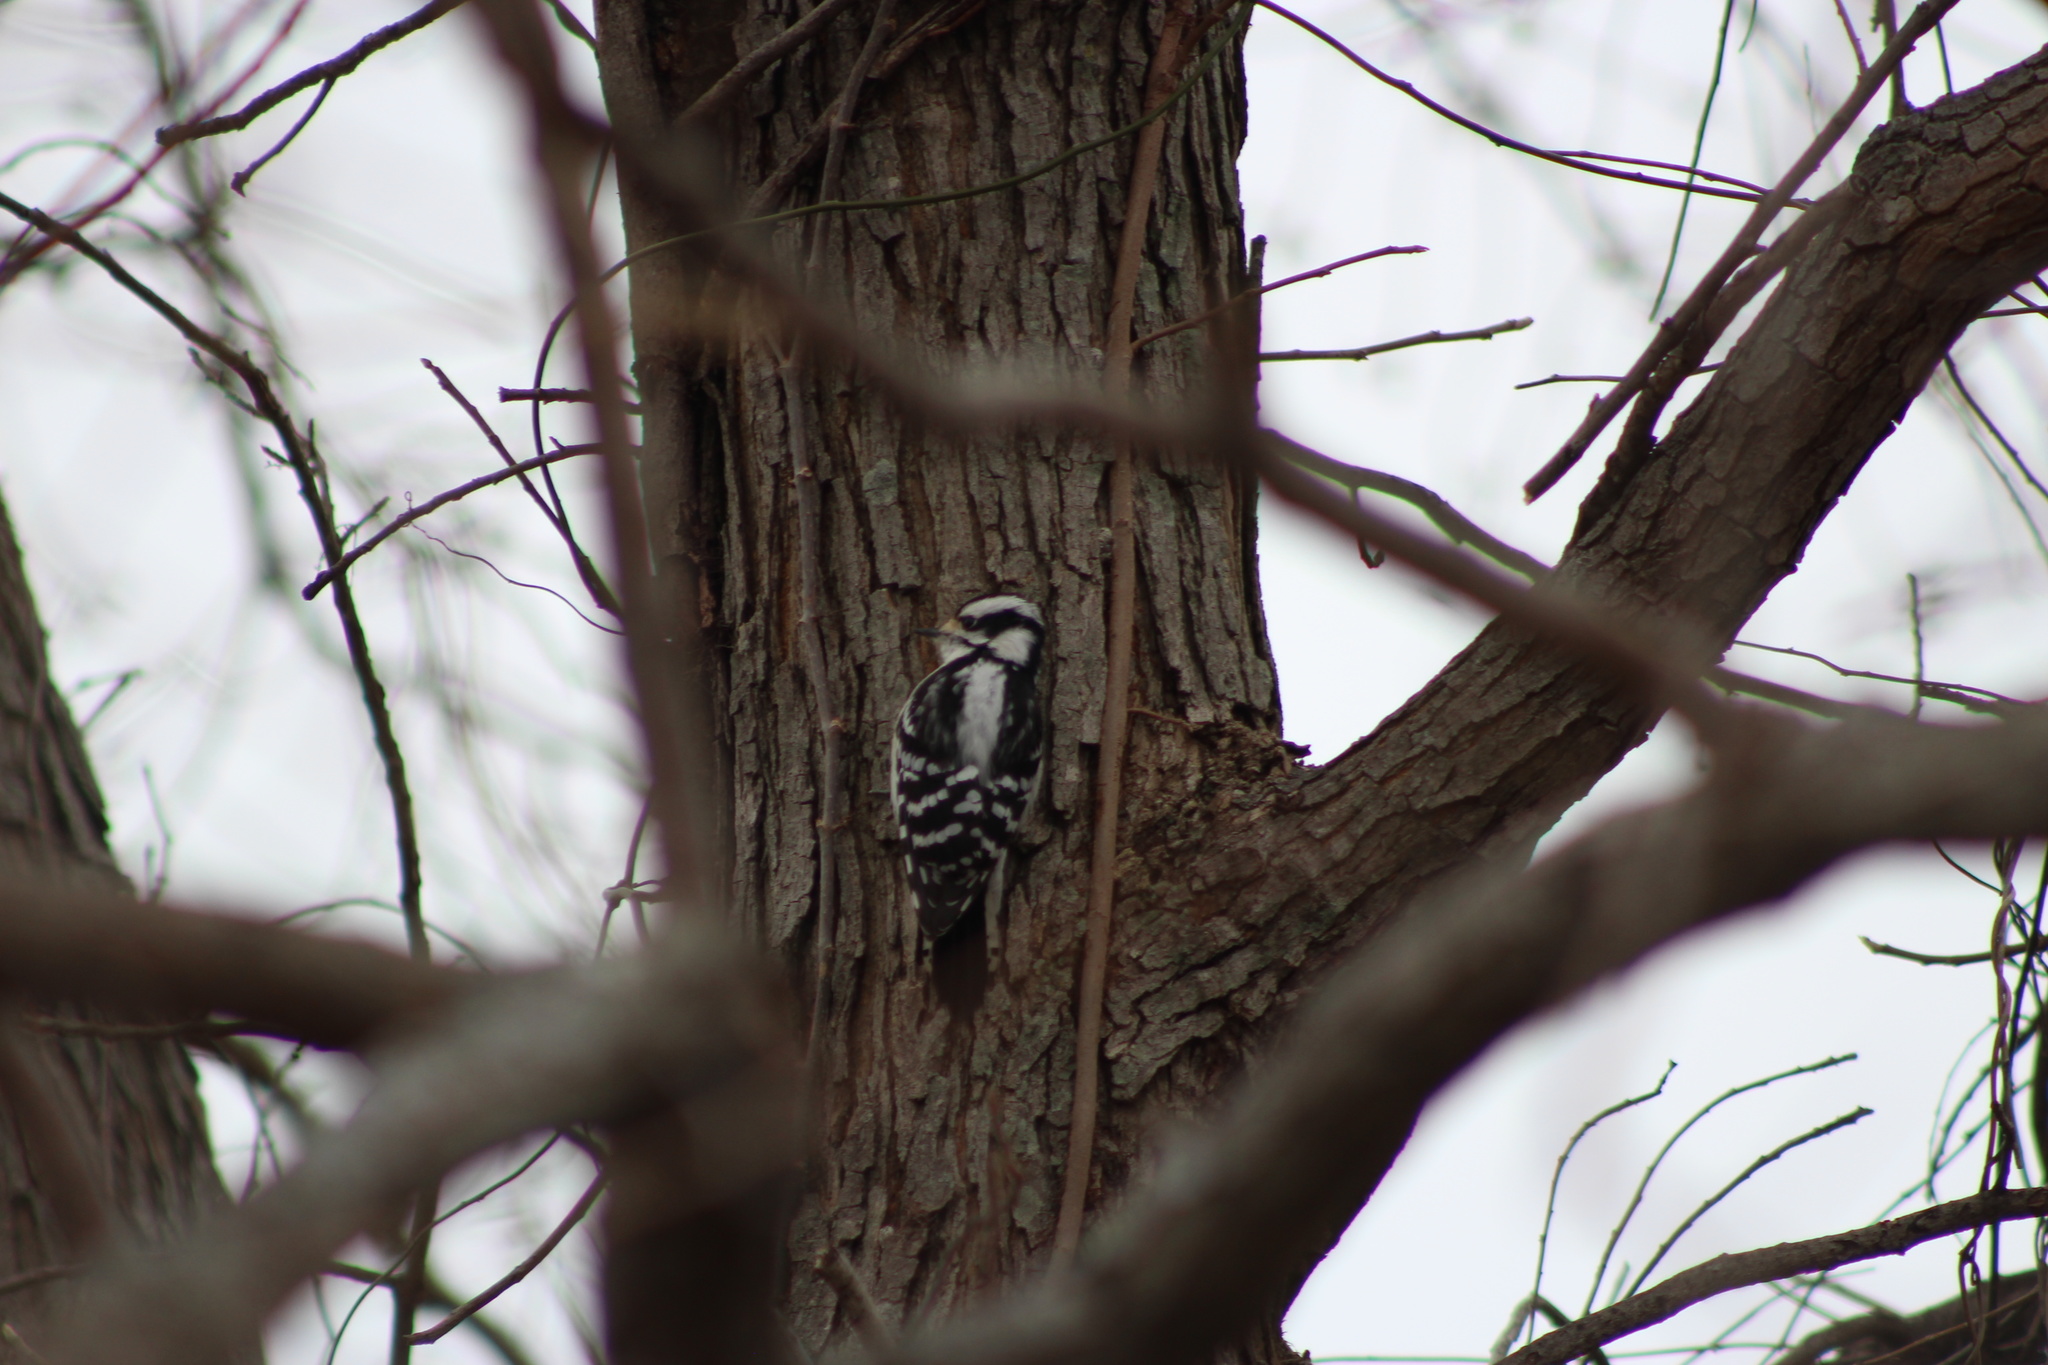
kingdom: Animalia
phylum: Chordata
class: Aves
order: Piciformes
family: Picidae
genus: Dryobates
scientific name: Dryobates pubescens
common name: Downy woodpecker
